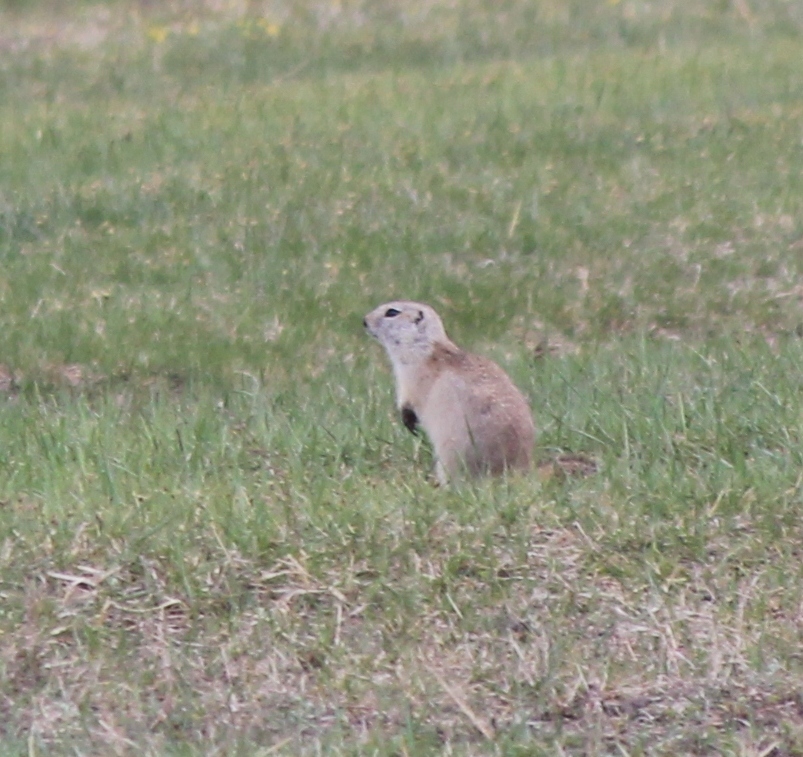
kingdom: Animalia
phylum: Chordata
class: Mammalia
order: Rodentia
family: Sciuridae
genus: Urocitellus
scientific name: Urocitellus undulatus
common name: Long-tailed ground squirrel
